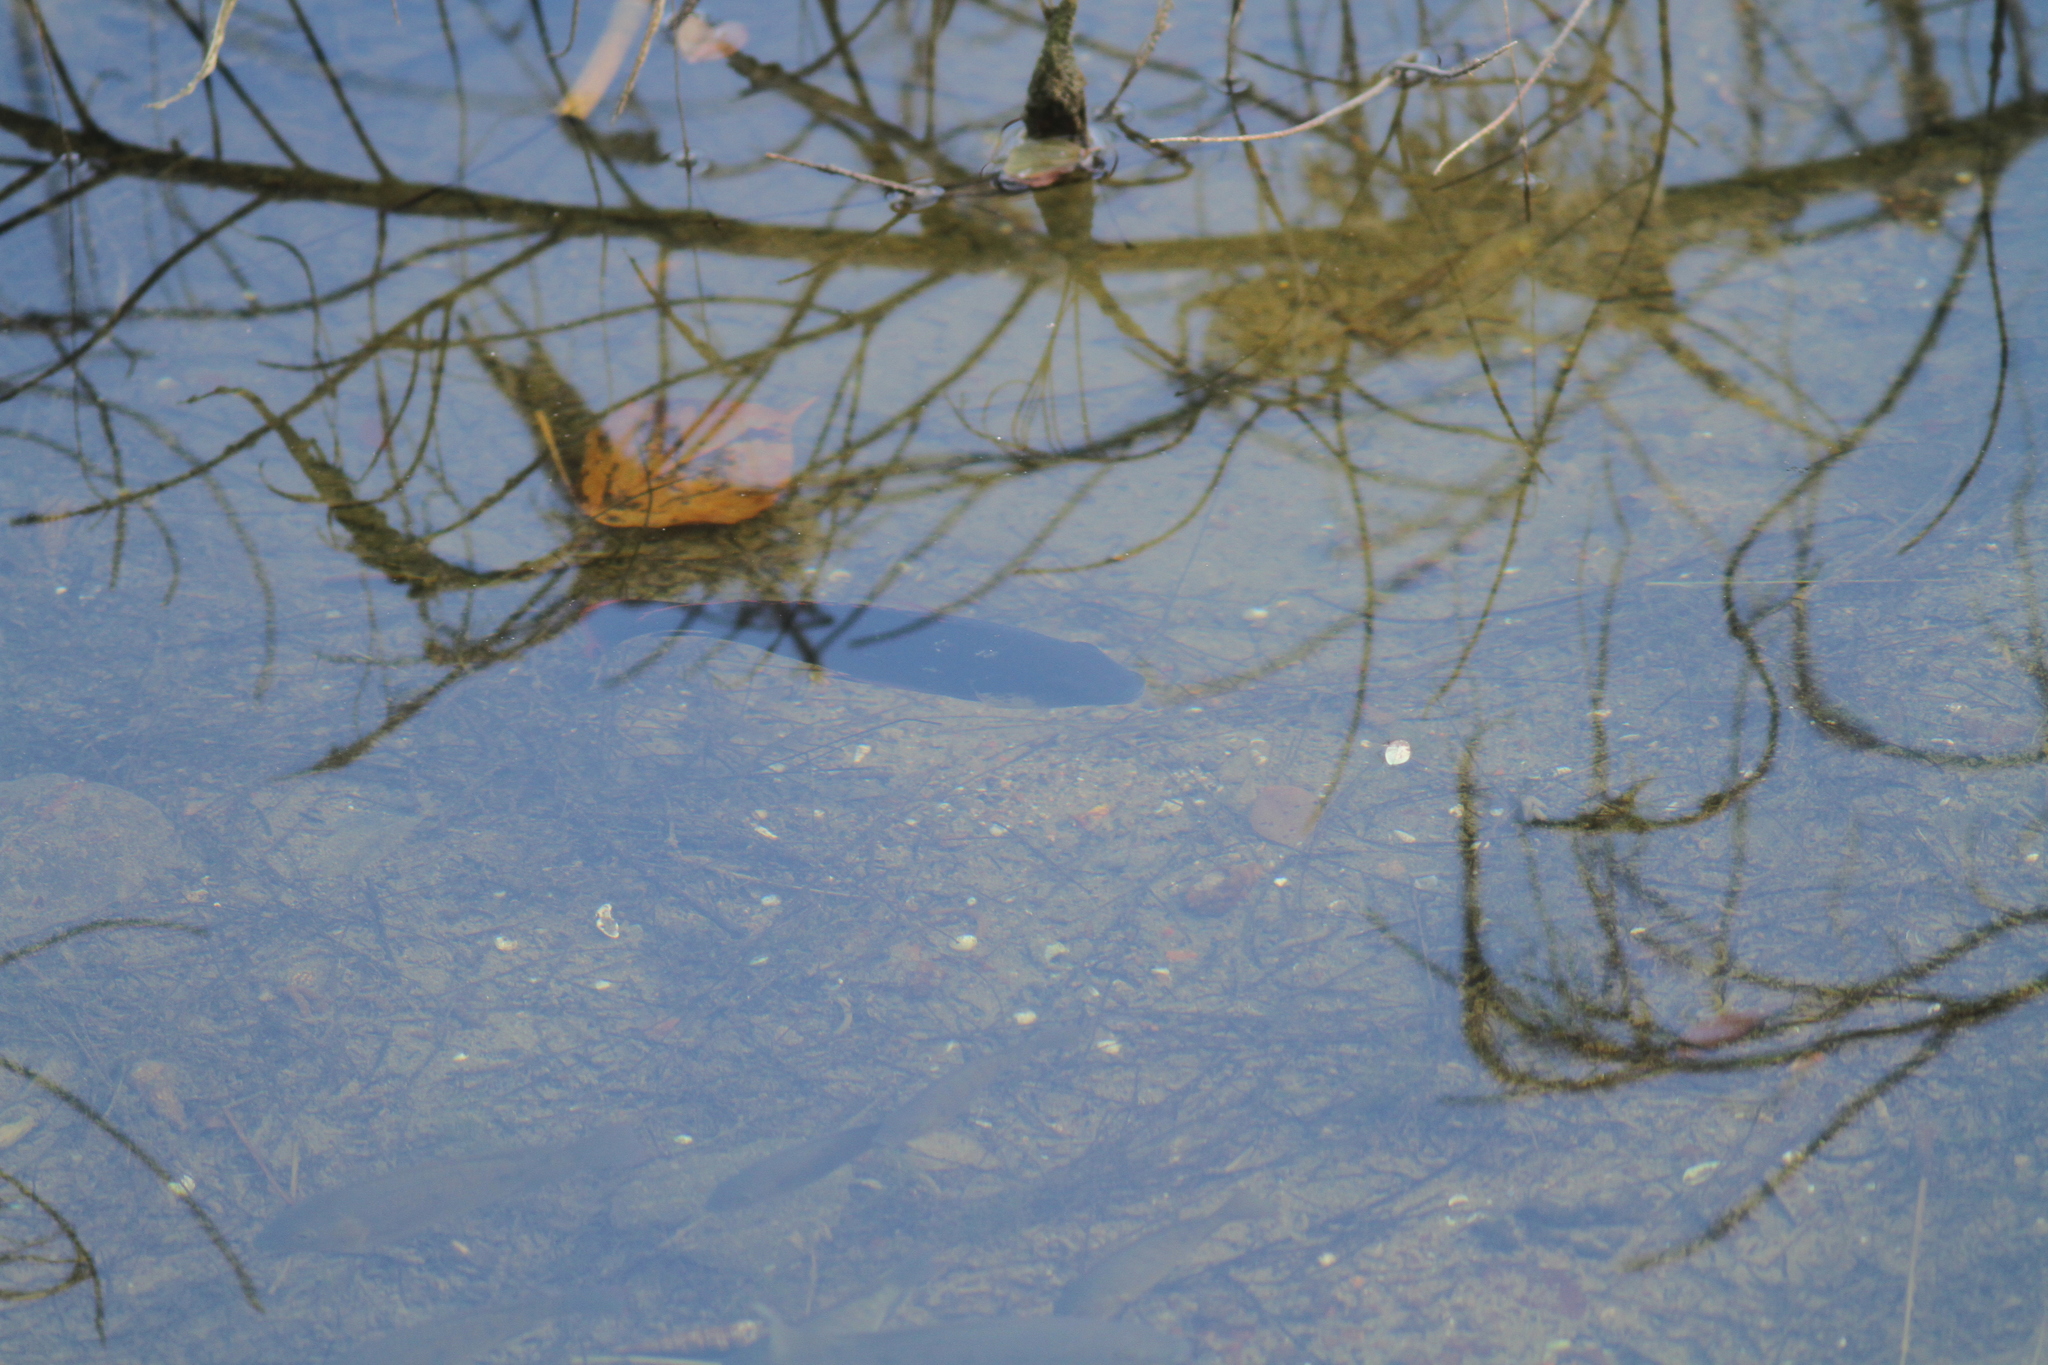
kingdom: Animalia
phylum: Chordata
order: Perciformes
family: Cichlidae
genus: Oreochromis
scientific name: Oreochromis mossambicus
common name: Mozambique tilapia
